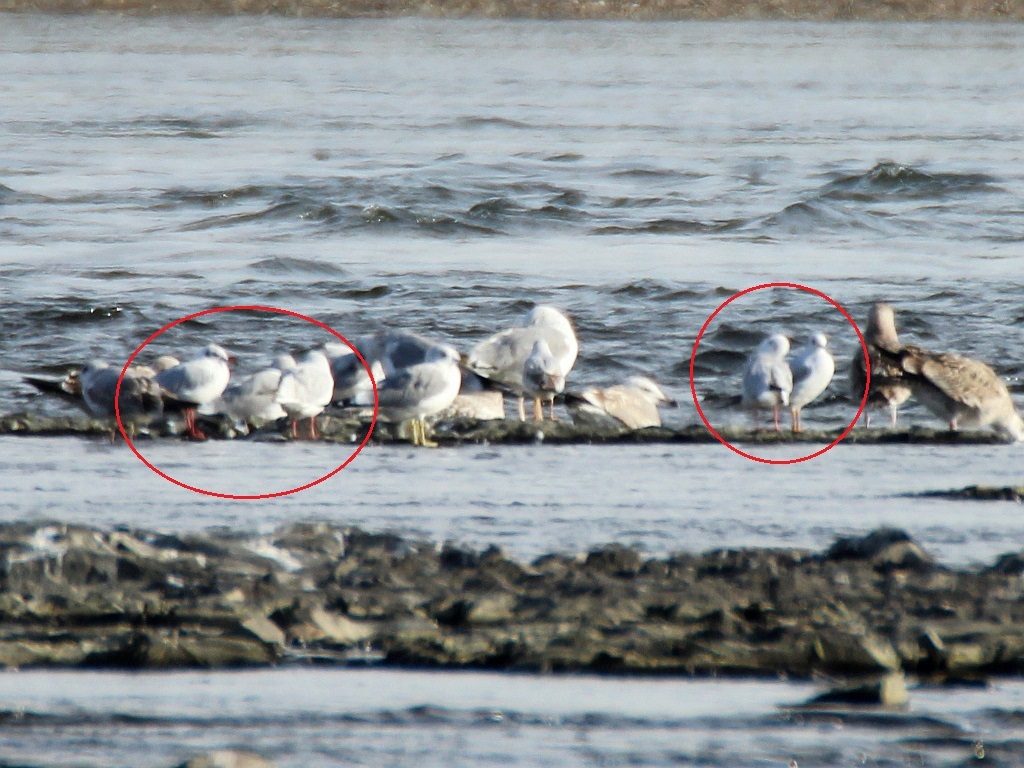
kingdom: Animalia
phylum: Chordata
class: Aves
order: Charadriiformes
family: Laridae
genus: Chroicocephalus
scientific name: Chroicocephalus ridibundus
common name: Black-headed gull
